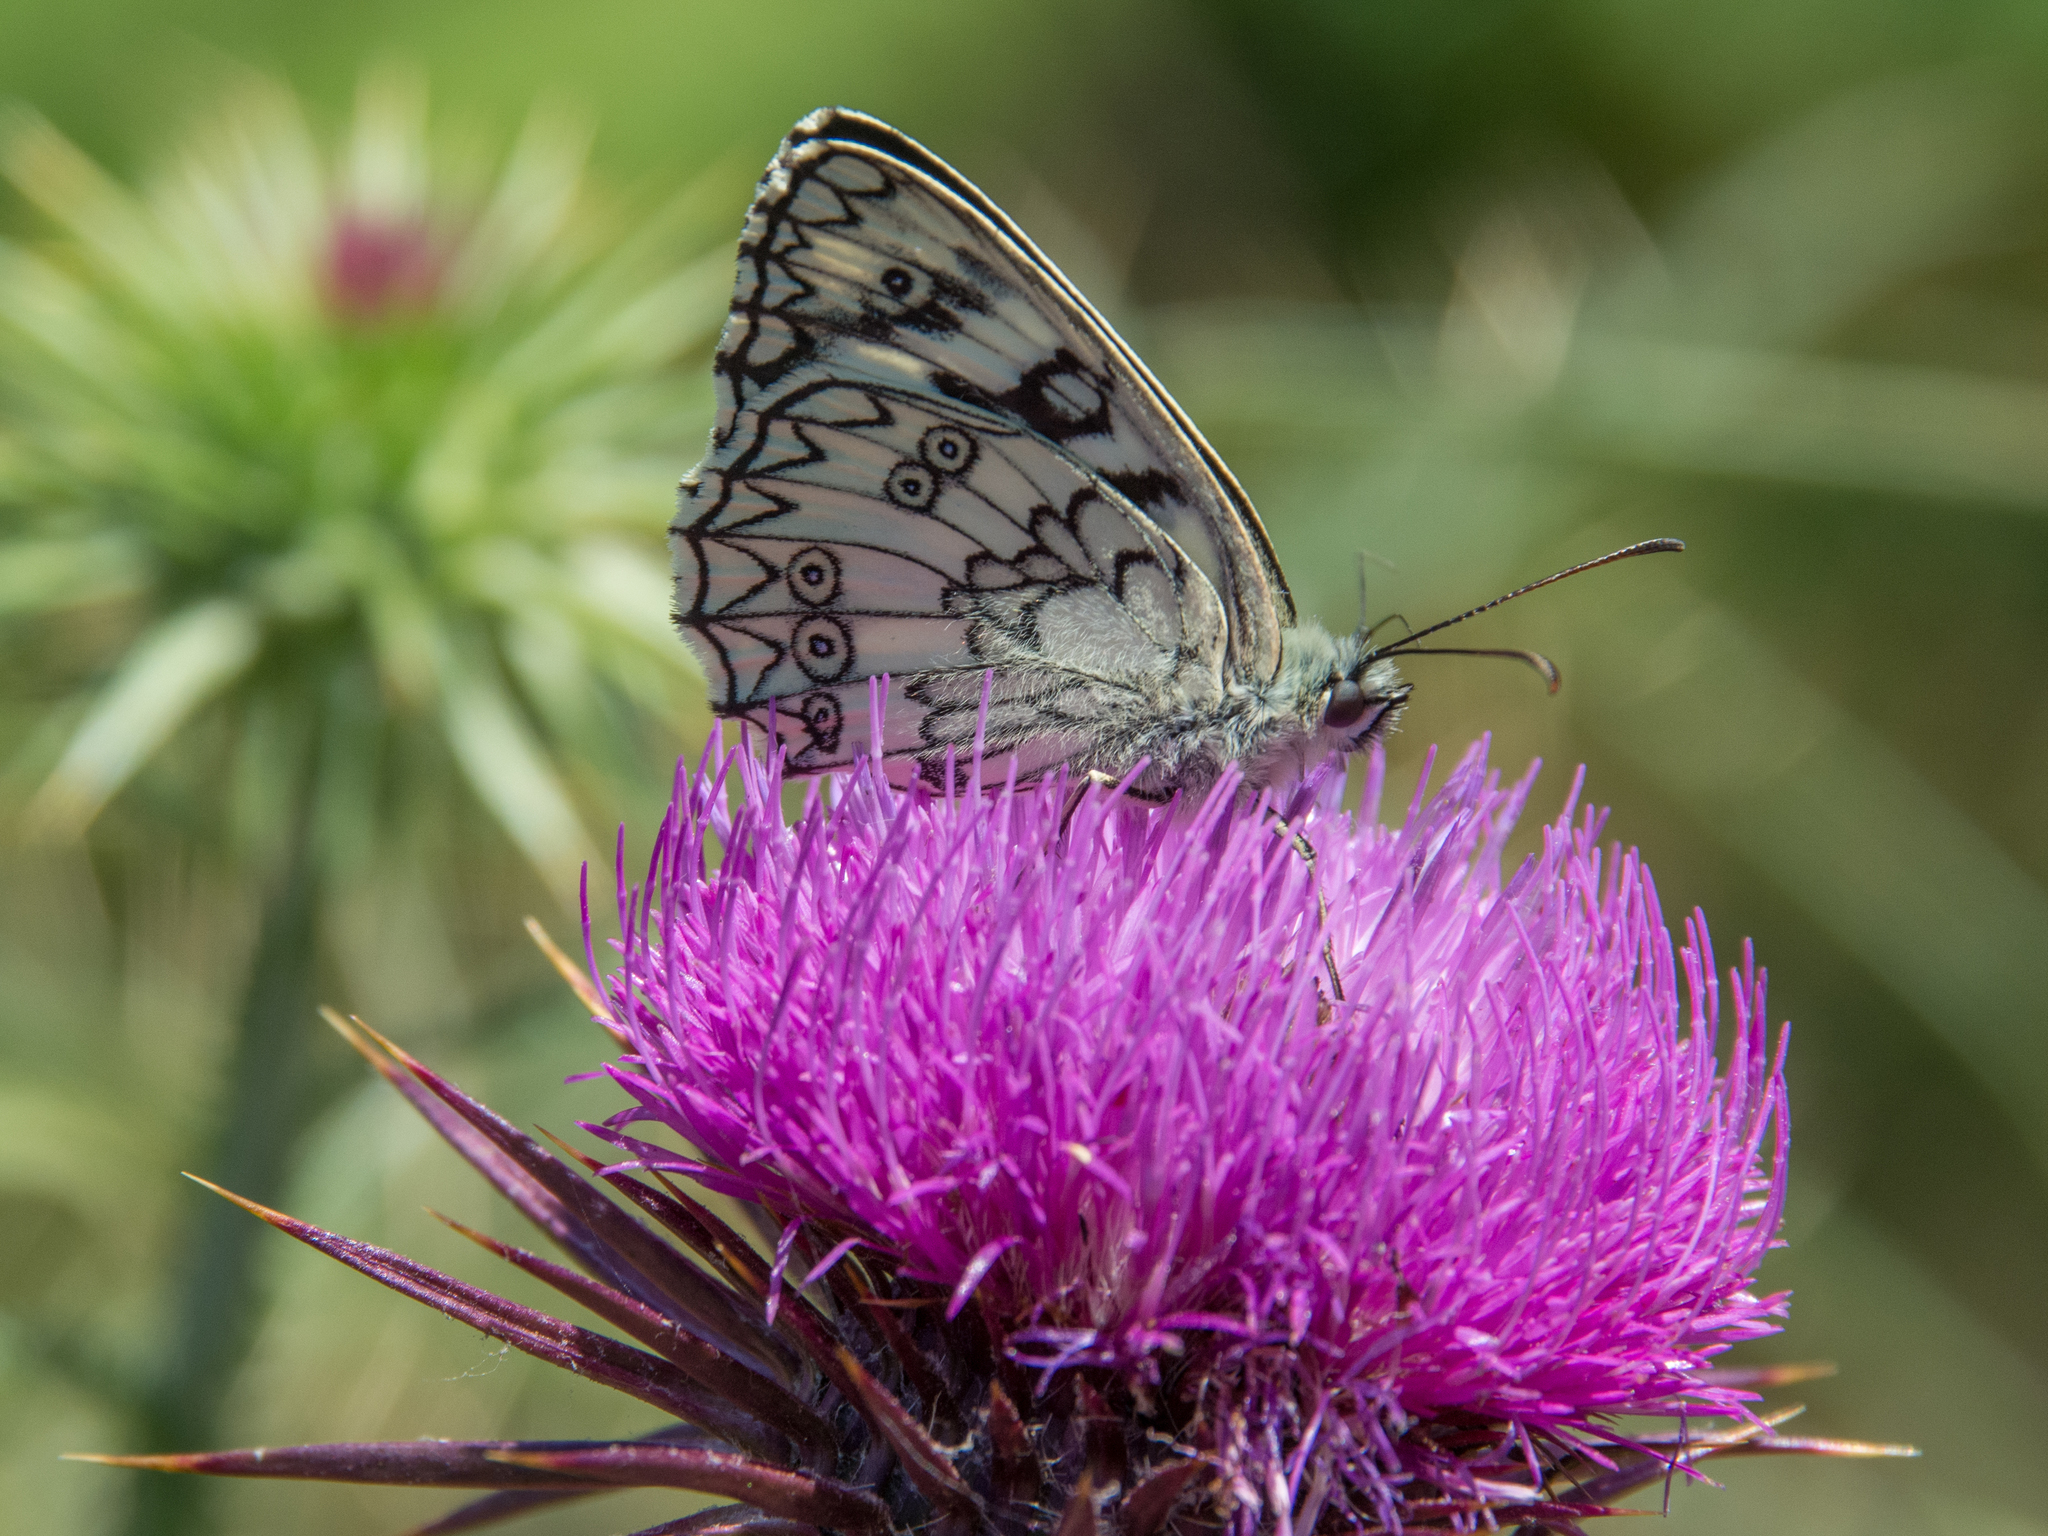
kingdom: Animalia
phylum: Arthropoda
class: Insecta
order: Lepidoptera
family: Nymphalidae
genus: Melanargia
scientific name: Melanargia japygia
